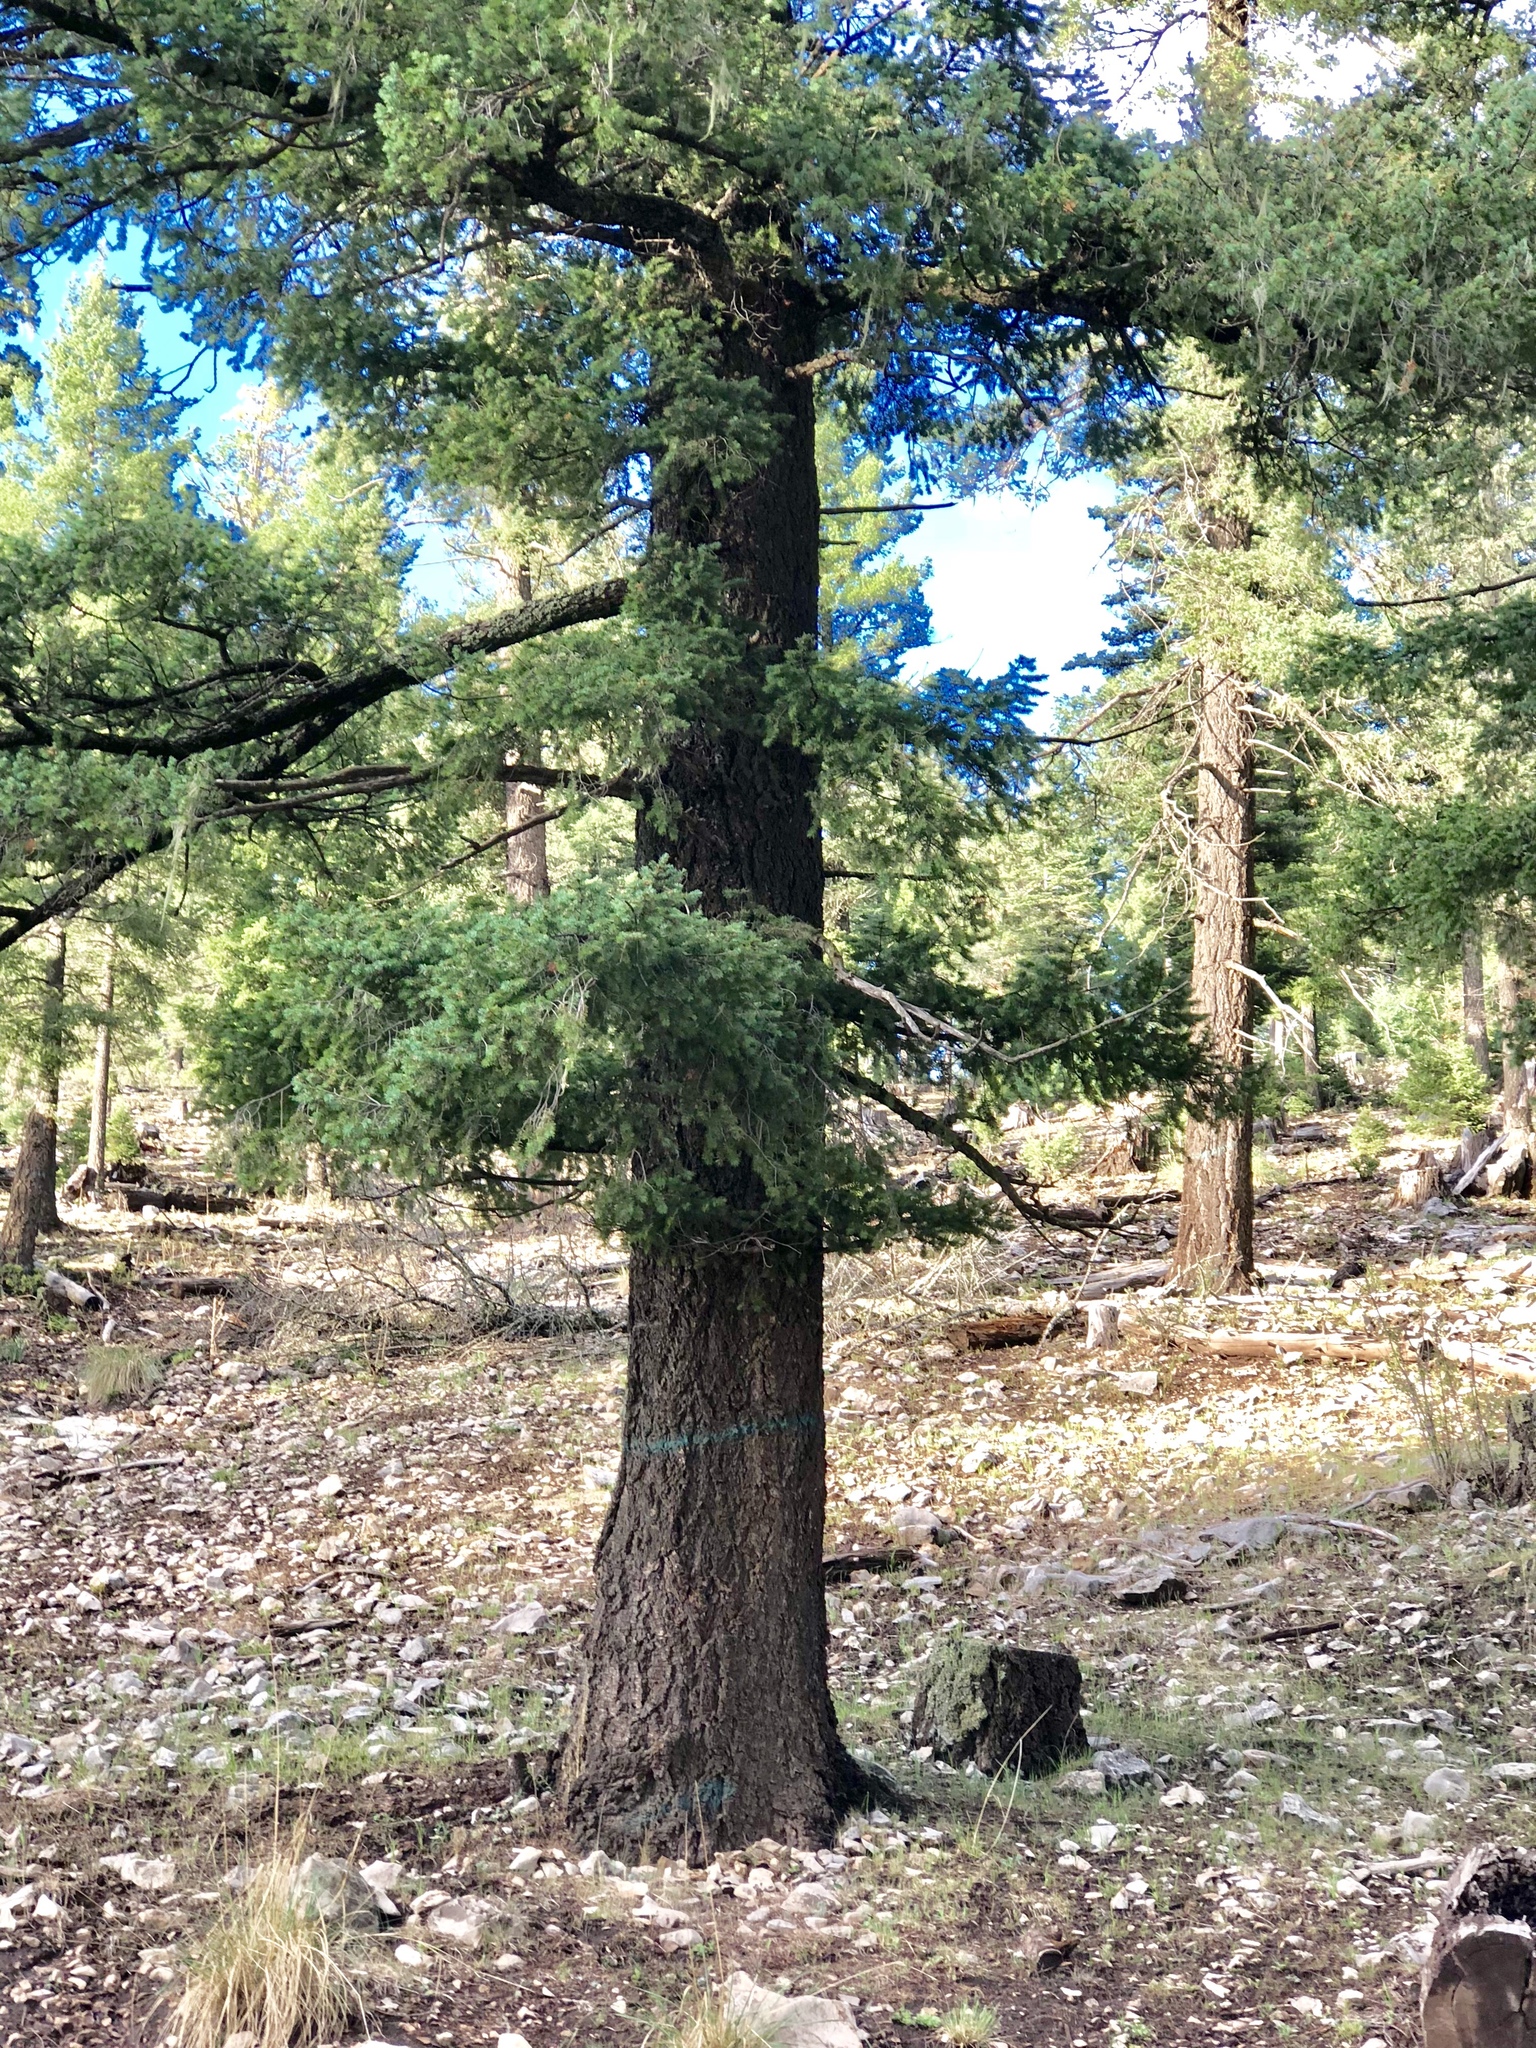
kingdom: Plantae
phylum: Tracheophyta
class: Pinopsida
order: Pinales
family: Pinaceae
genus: Pseudotsuga
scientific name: Pseudotsuga menziesii
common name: Douglas fir
